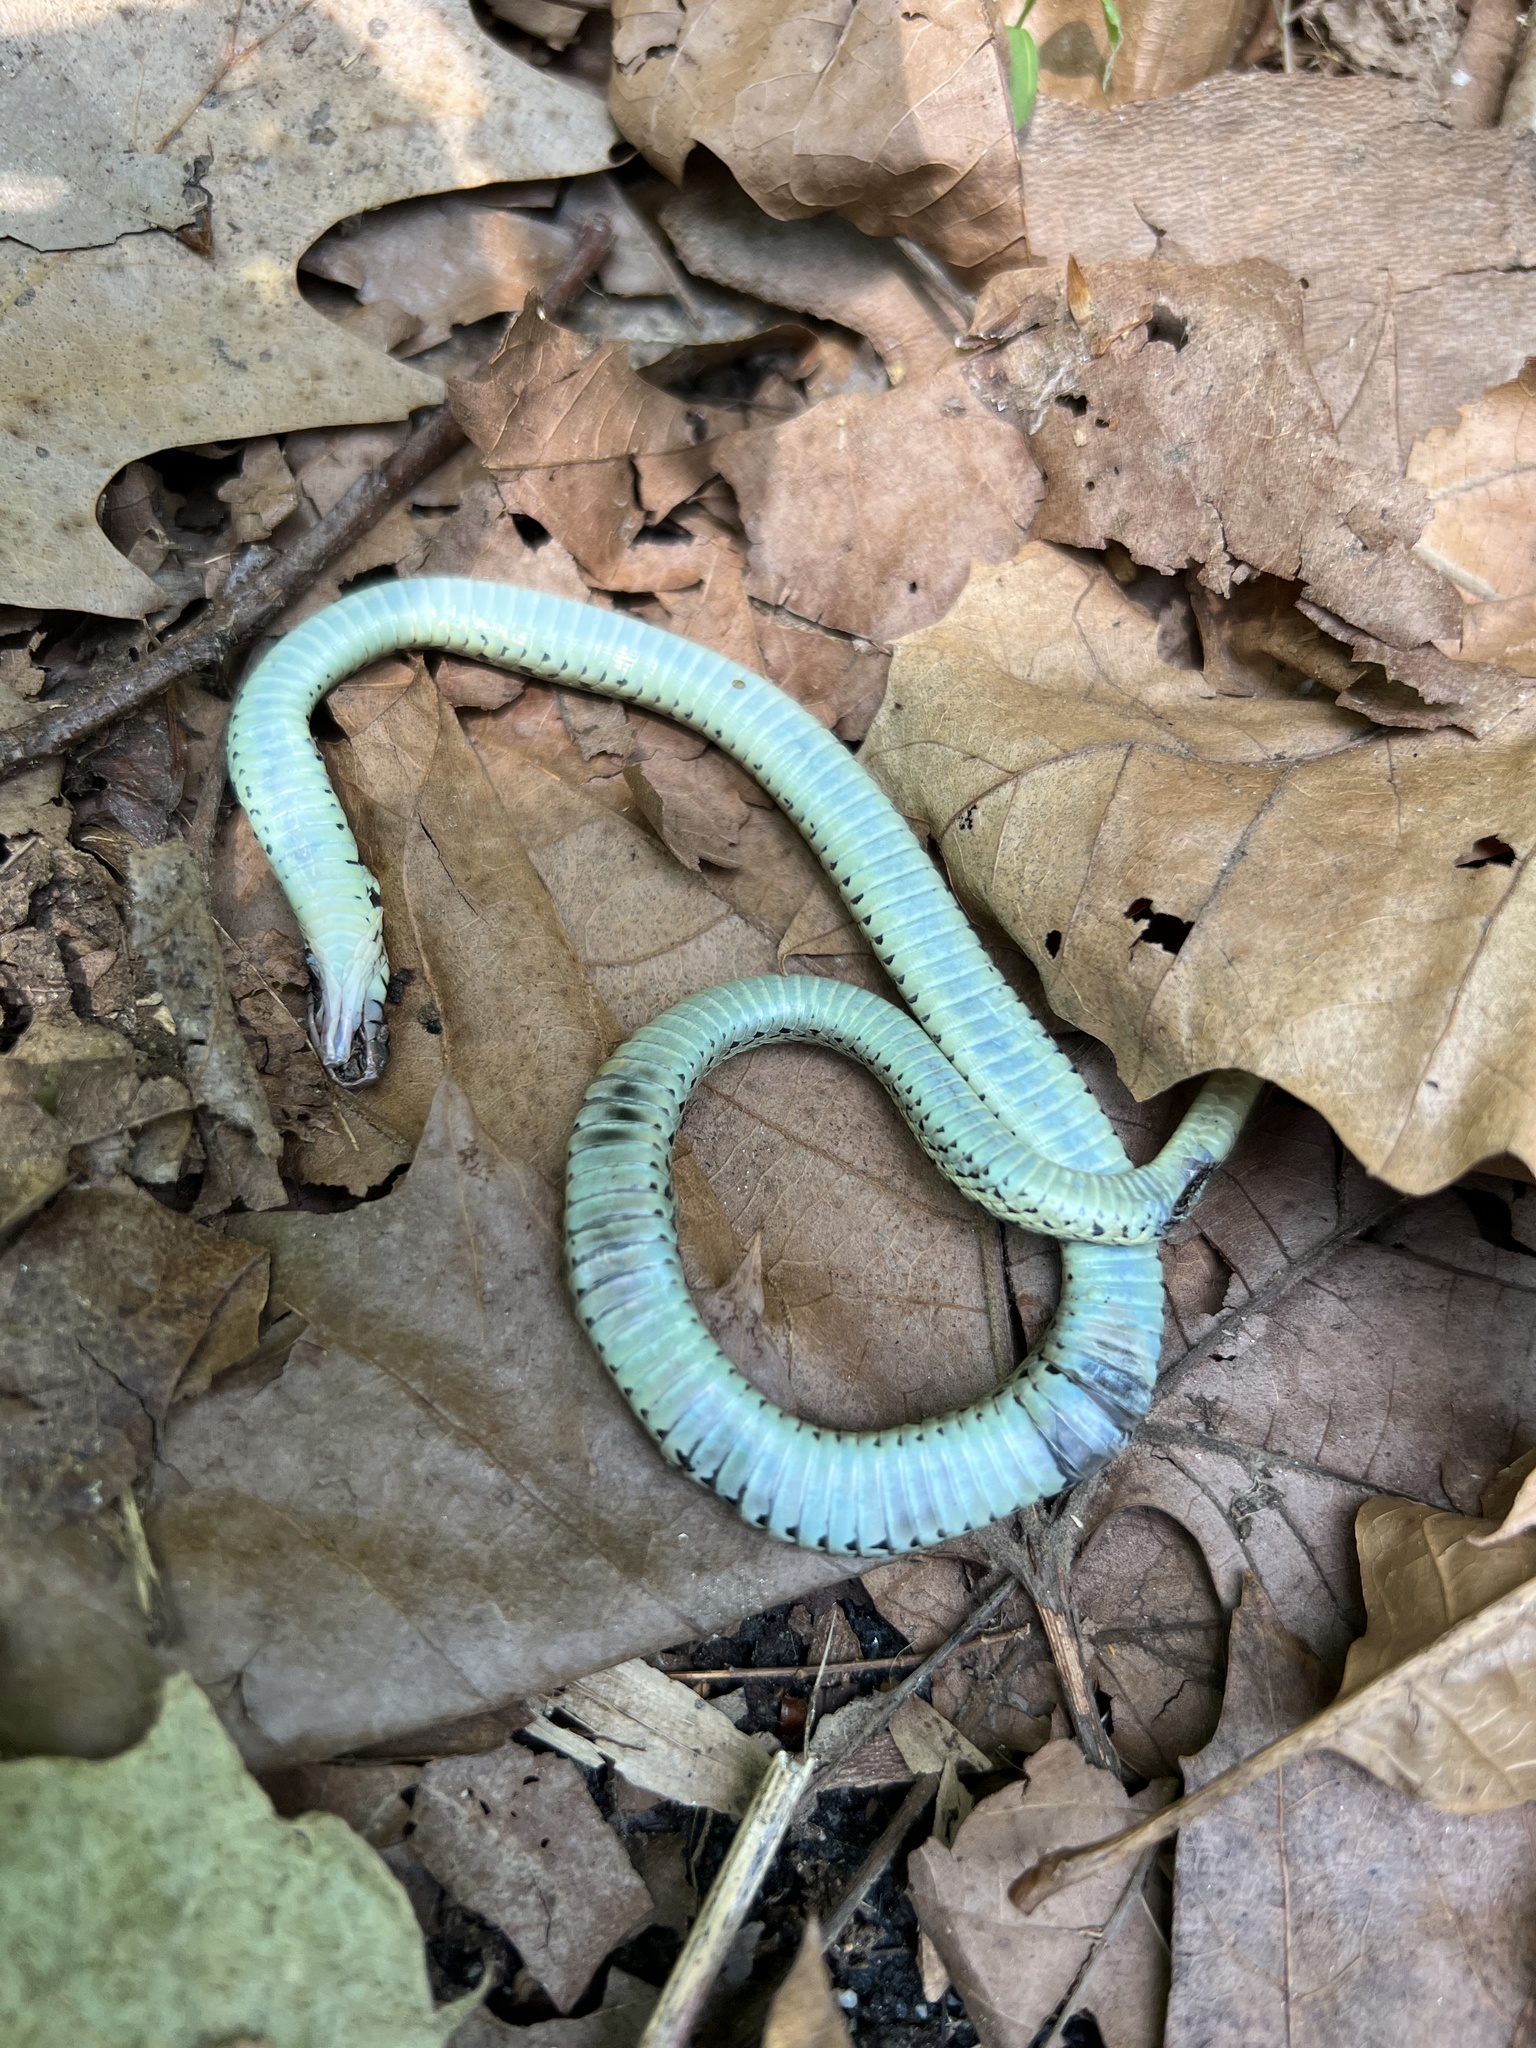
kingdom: Animalia
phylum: Chordata
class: Squamata
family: Colubridae
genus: Thamnophis
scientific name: Thamnophis sirtalis
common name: Common garter snake
